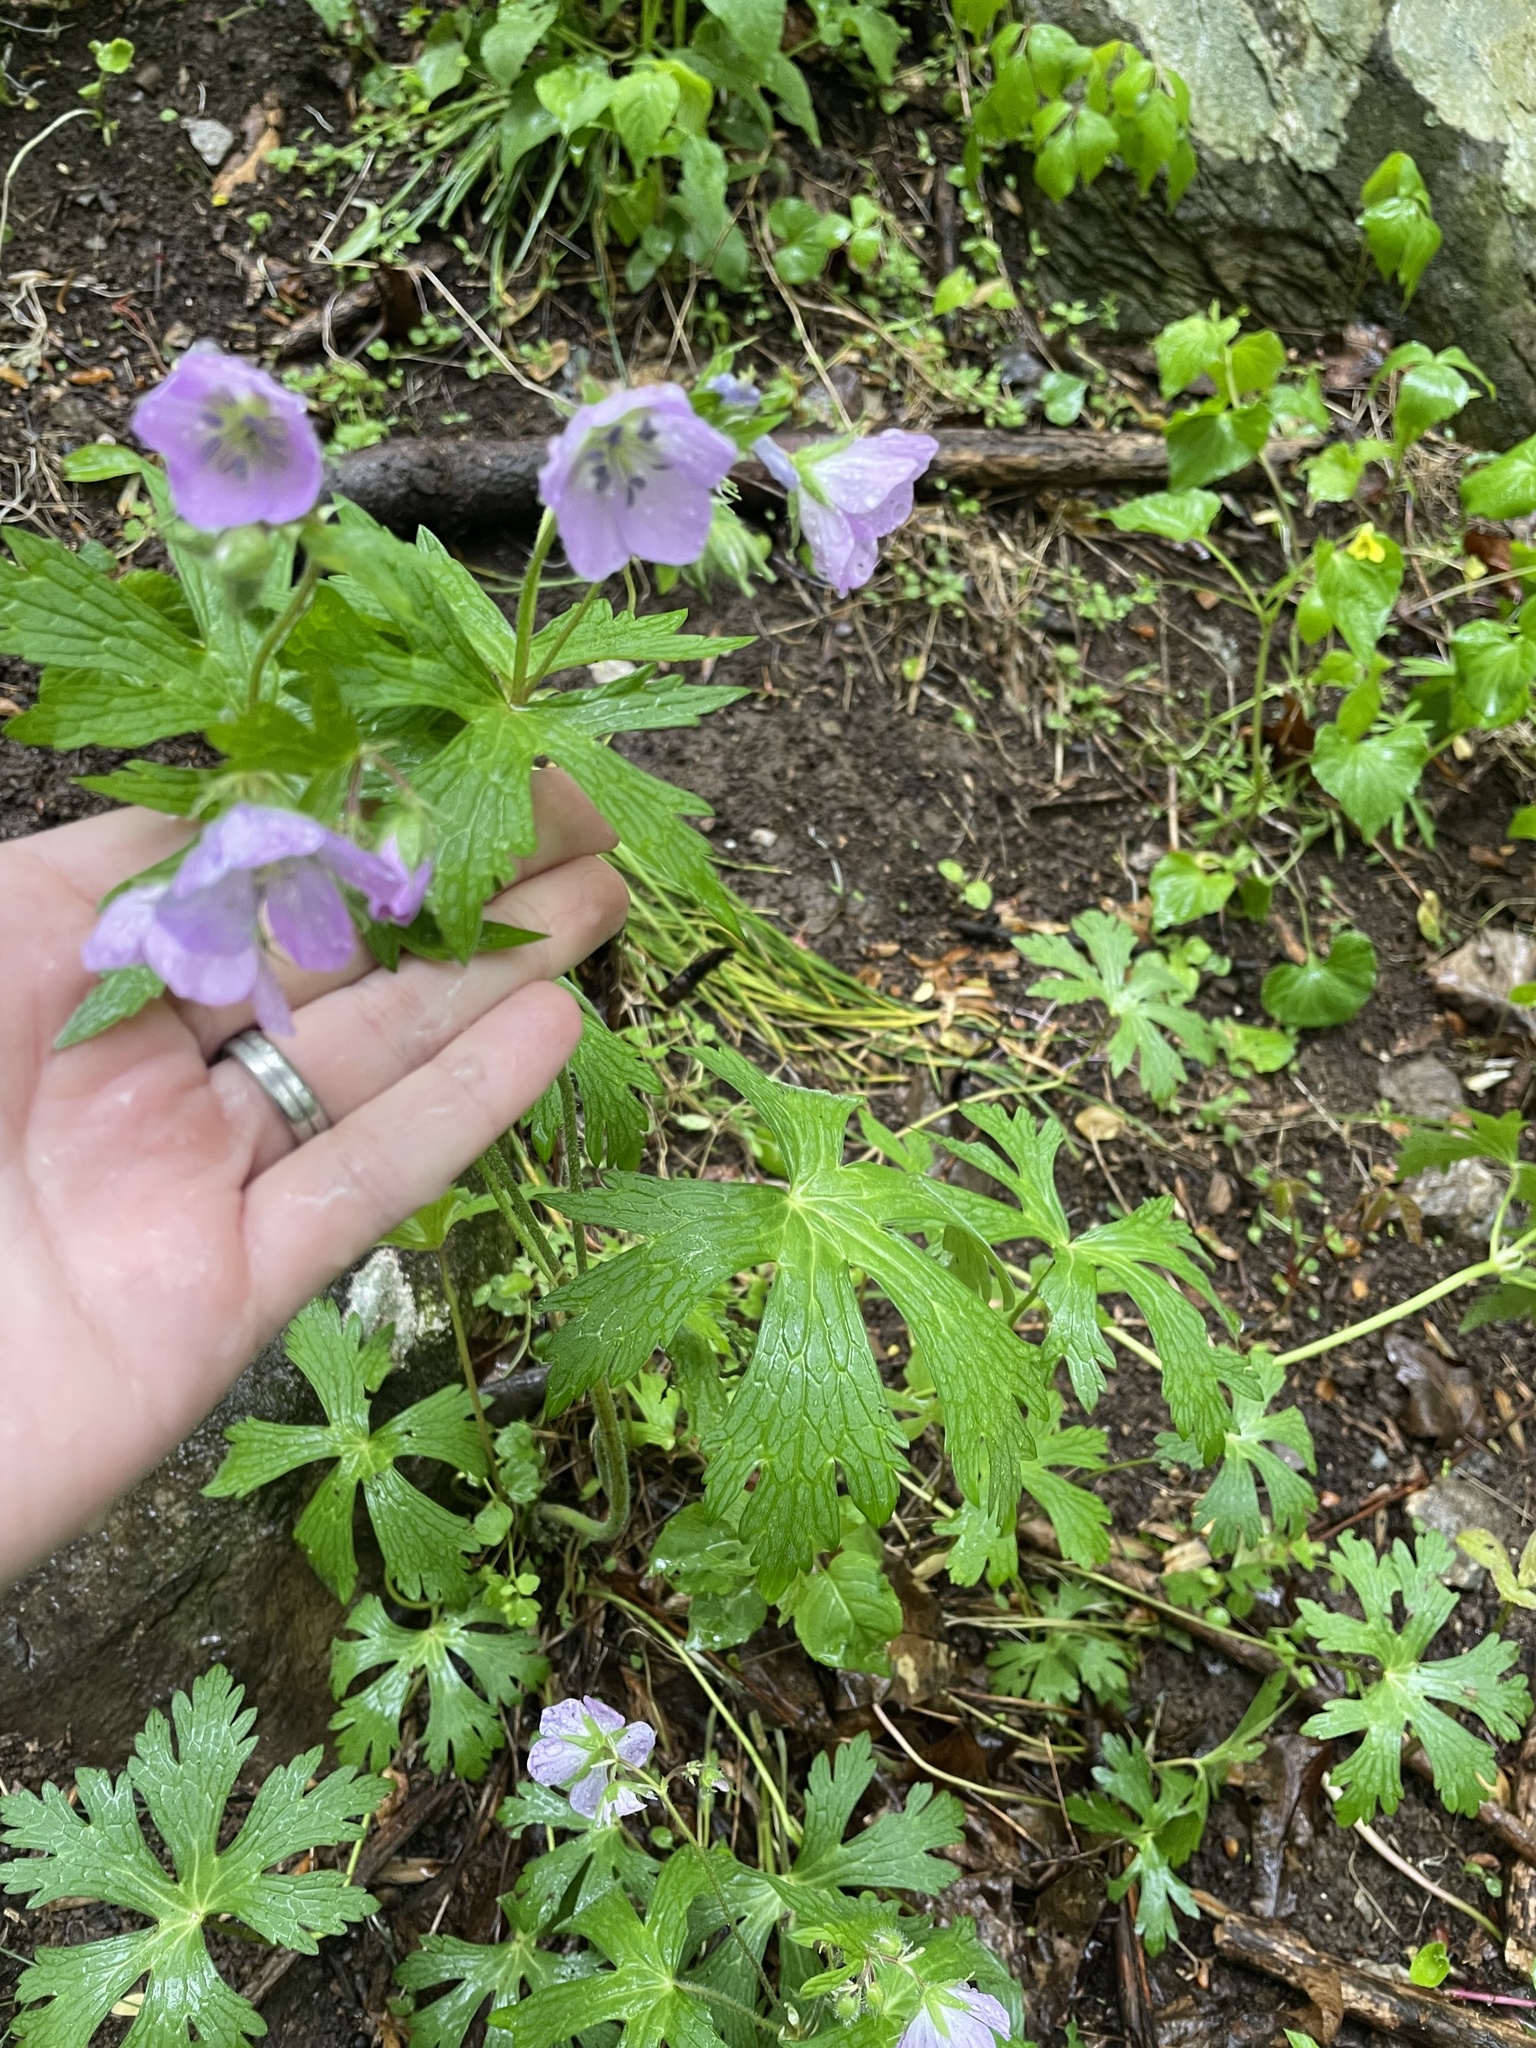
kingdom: Plantae
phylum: Tracheophyta
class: Magnoliopsida
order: Geraniales
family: Geraniaceae
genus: Geranium
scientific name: Geranium maculatum
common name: Spotted geranium
